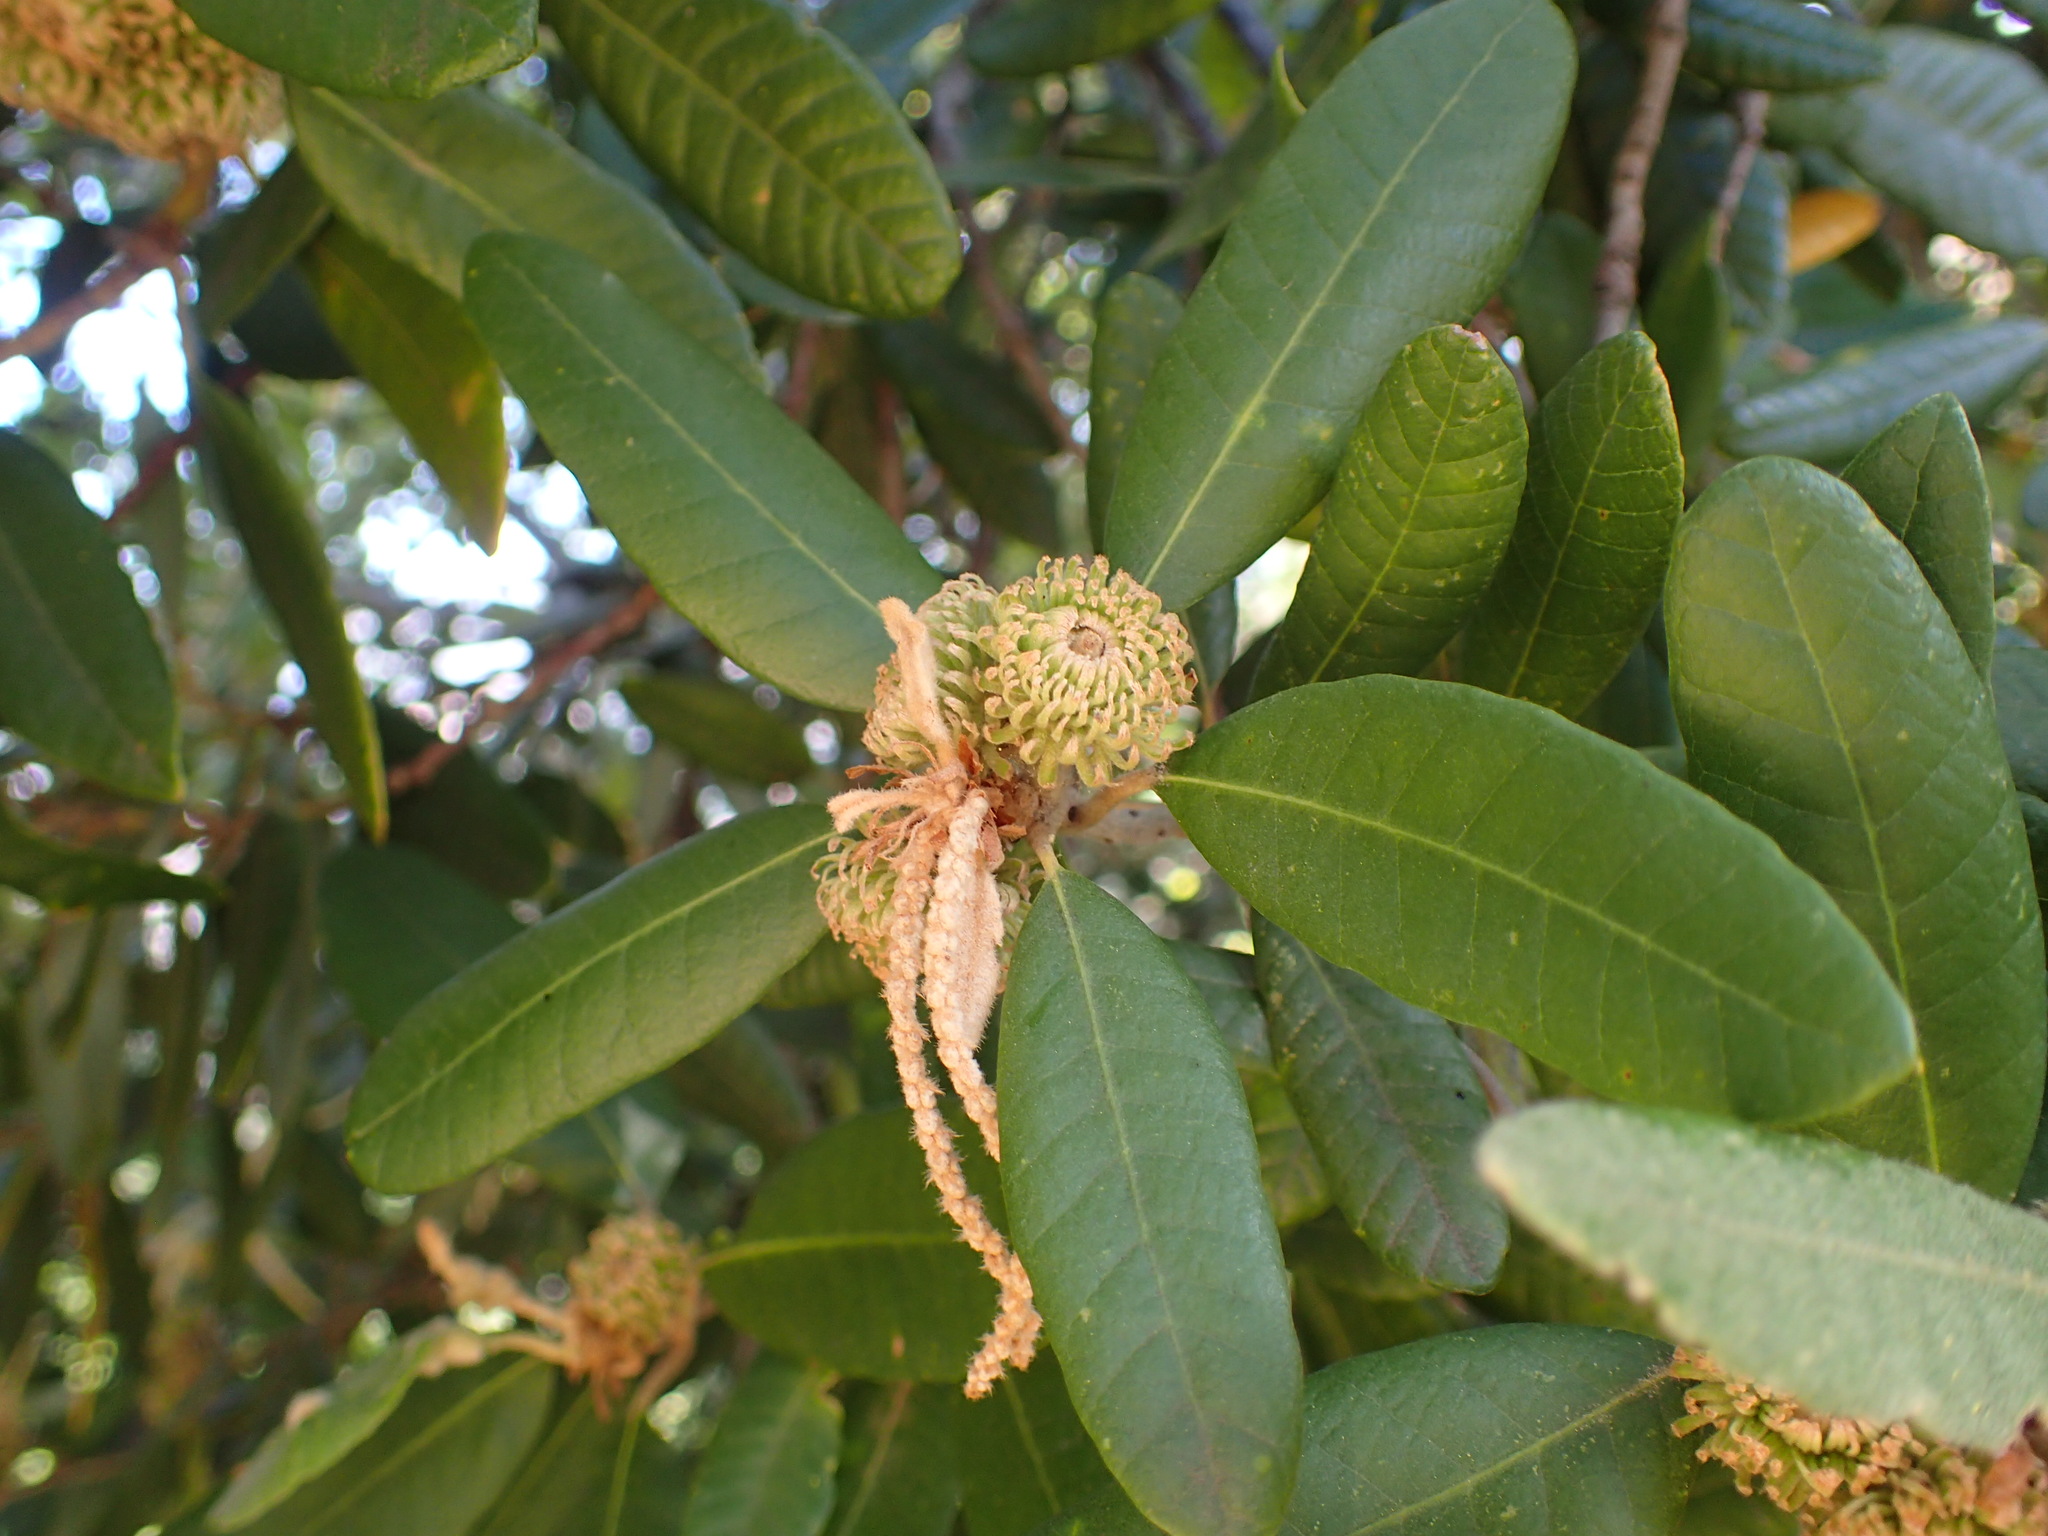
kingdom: Plantae
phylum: Tracheophyta
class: Magnoliopsida
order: Fagales
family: Fagaceae
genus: Notholithocarpus
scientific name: Notholithocarpus densiflorus
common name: Tan bark oak
